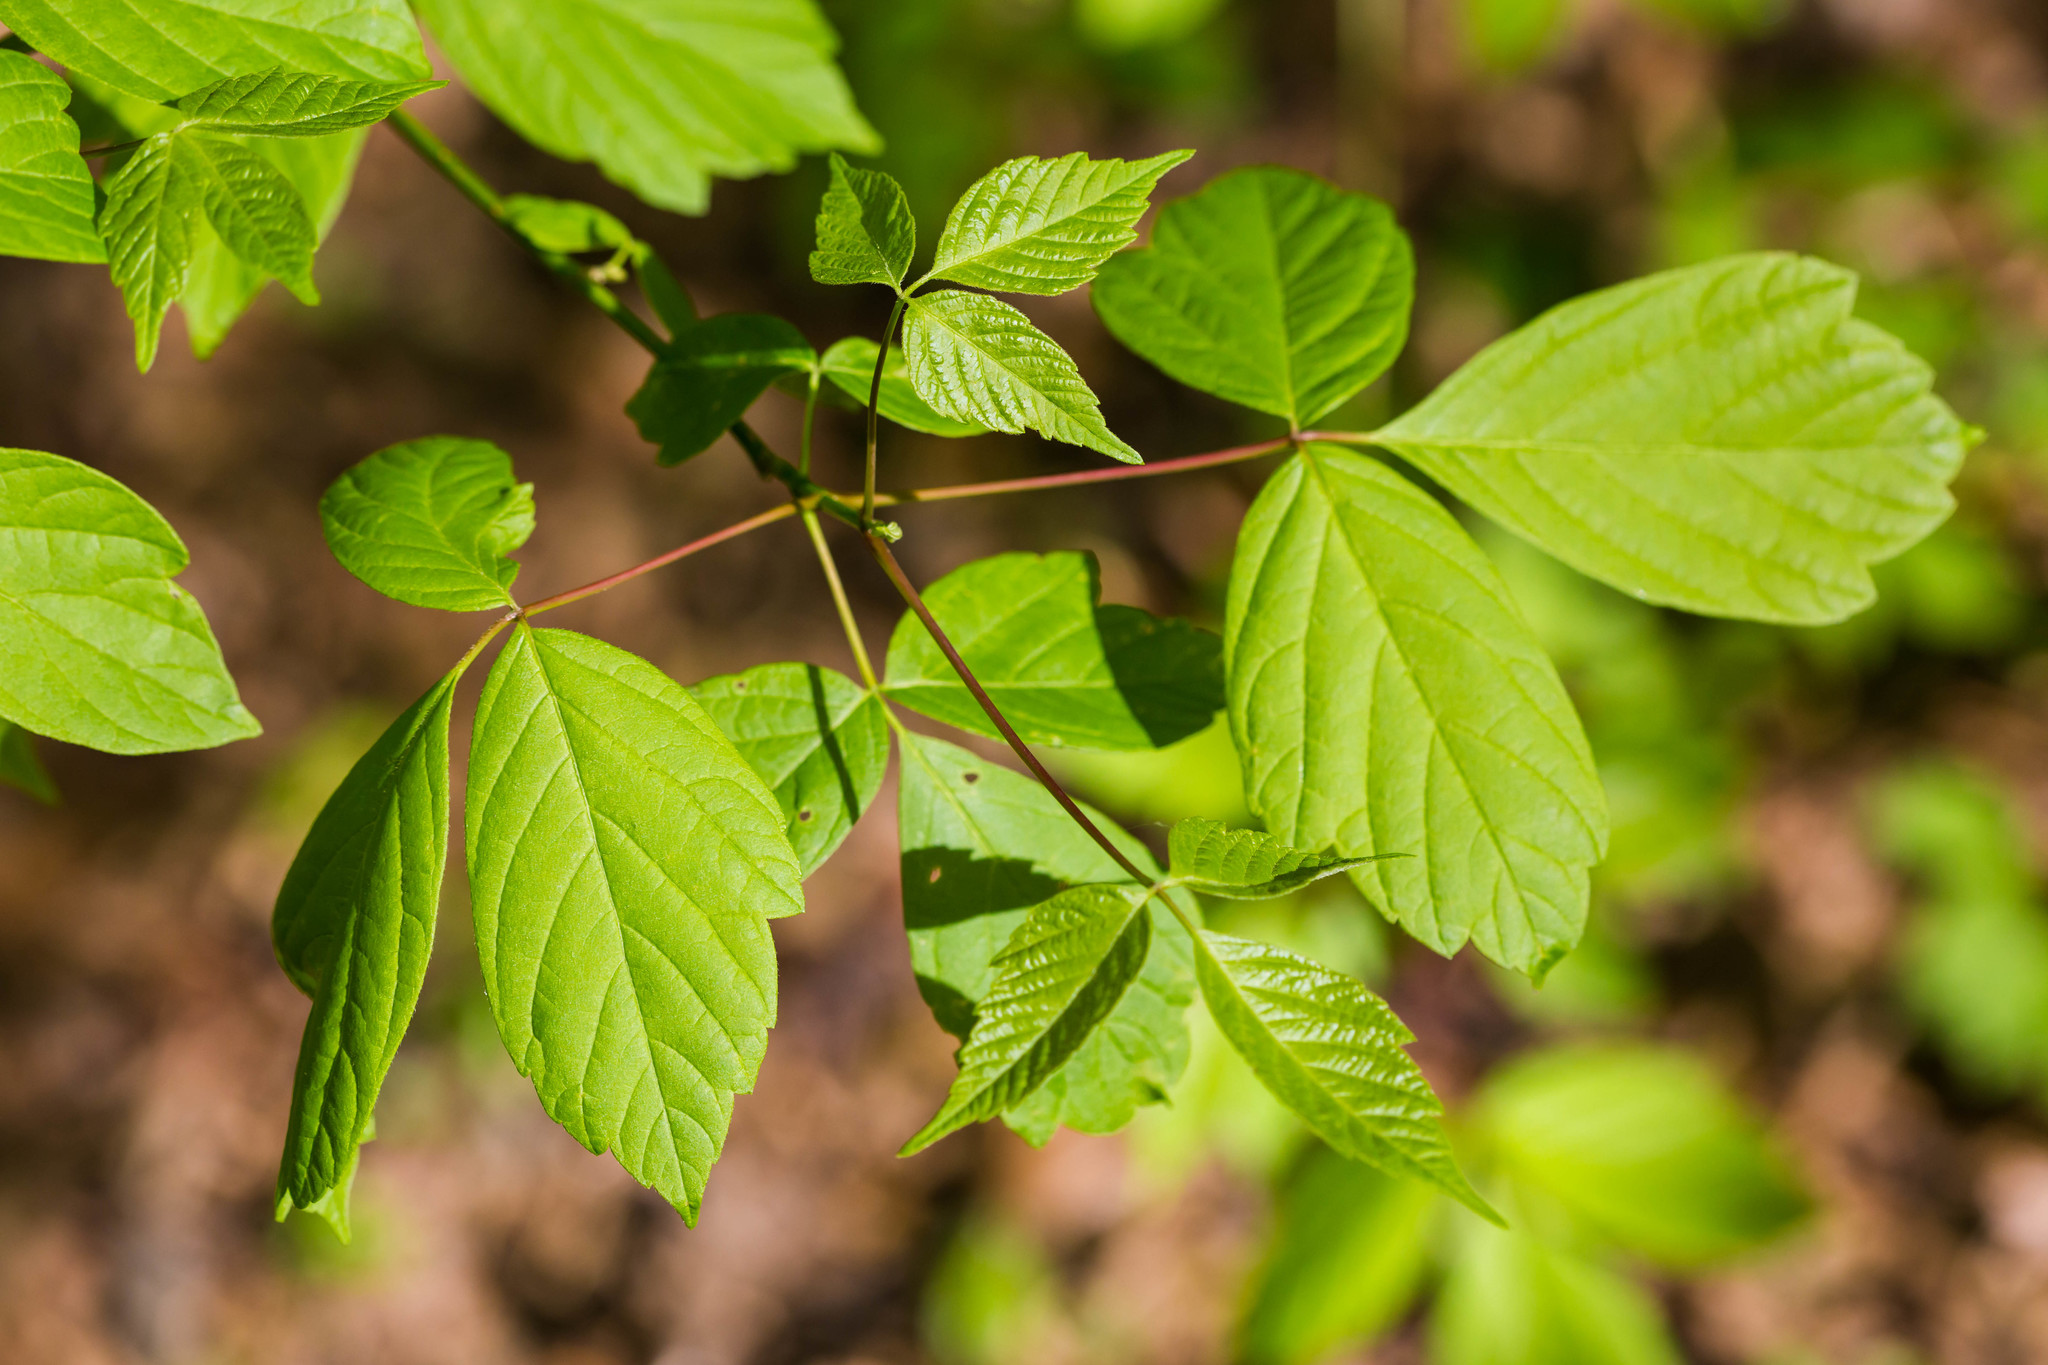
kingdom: Plantae
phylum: Tracheophyta
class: Magnoliopsida
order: Sapindales
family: Sapindaceae
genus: Acer
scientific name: Acer negundo
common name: Ashleaf maple
